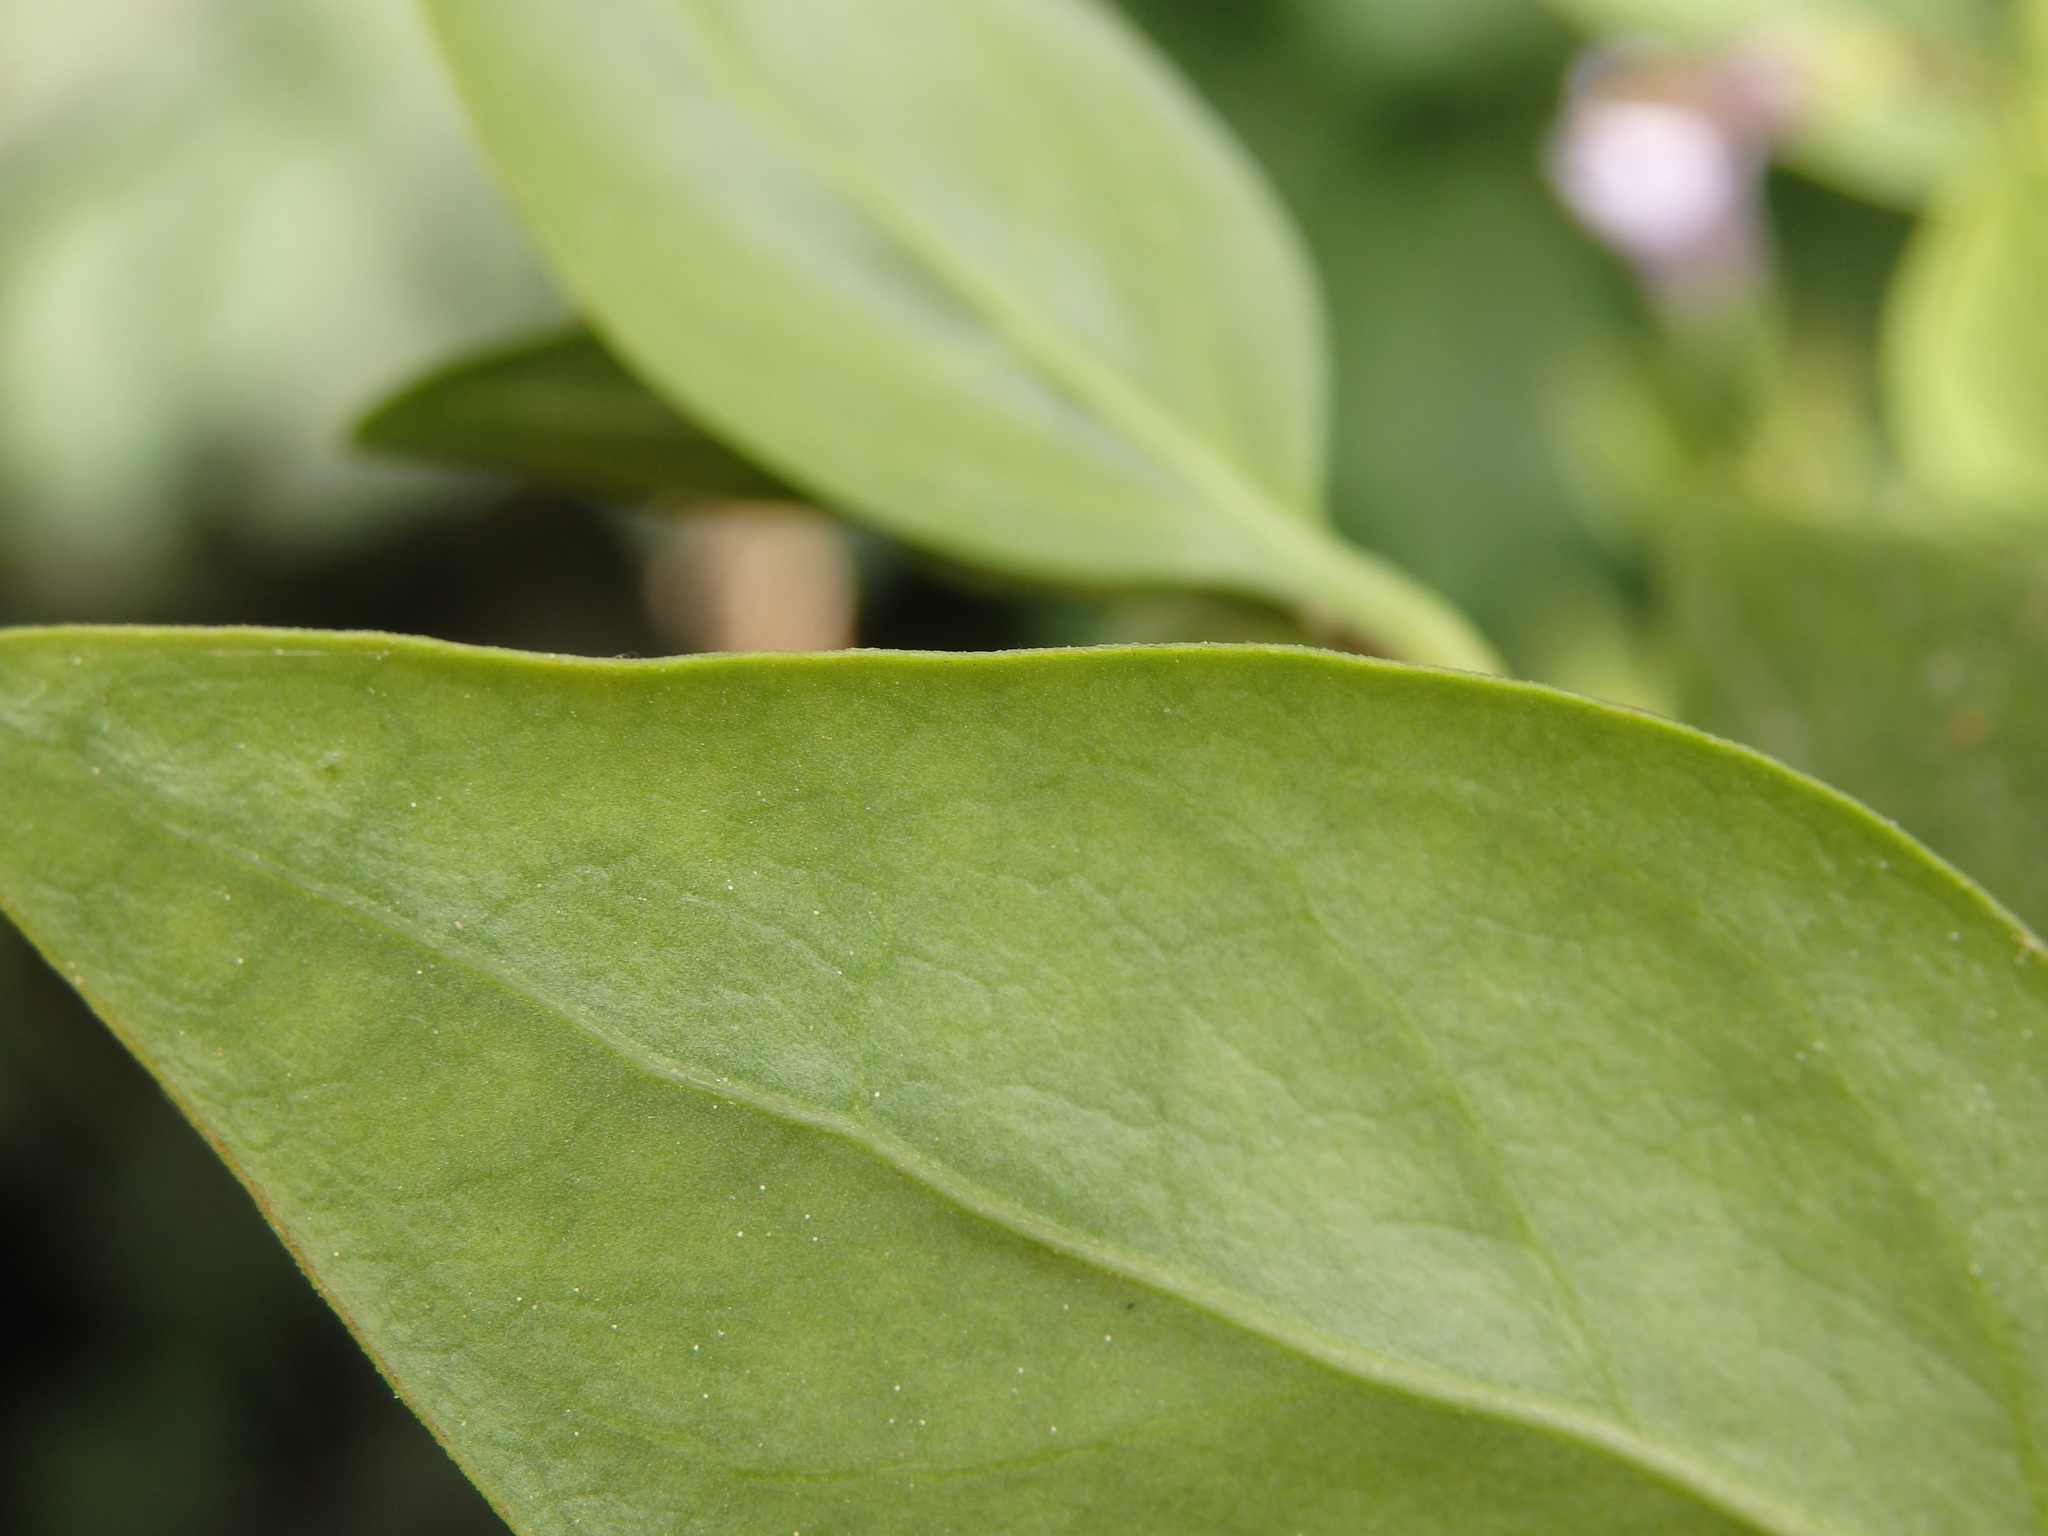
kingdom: Plantae
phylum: Tracheophyta
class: Magnoliopsida
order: Gentianales
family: Apocynaceae
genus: Vinca
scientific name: Vinca difformis
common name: Intermediate periwinkle
